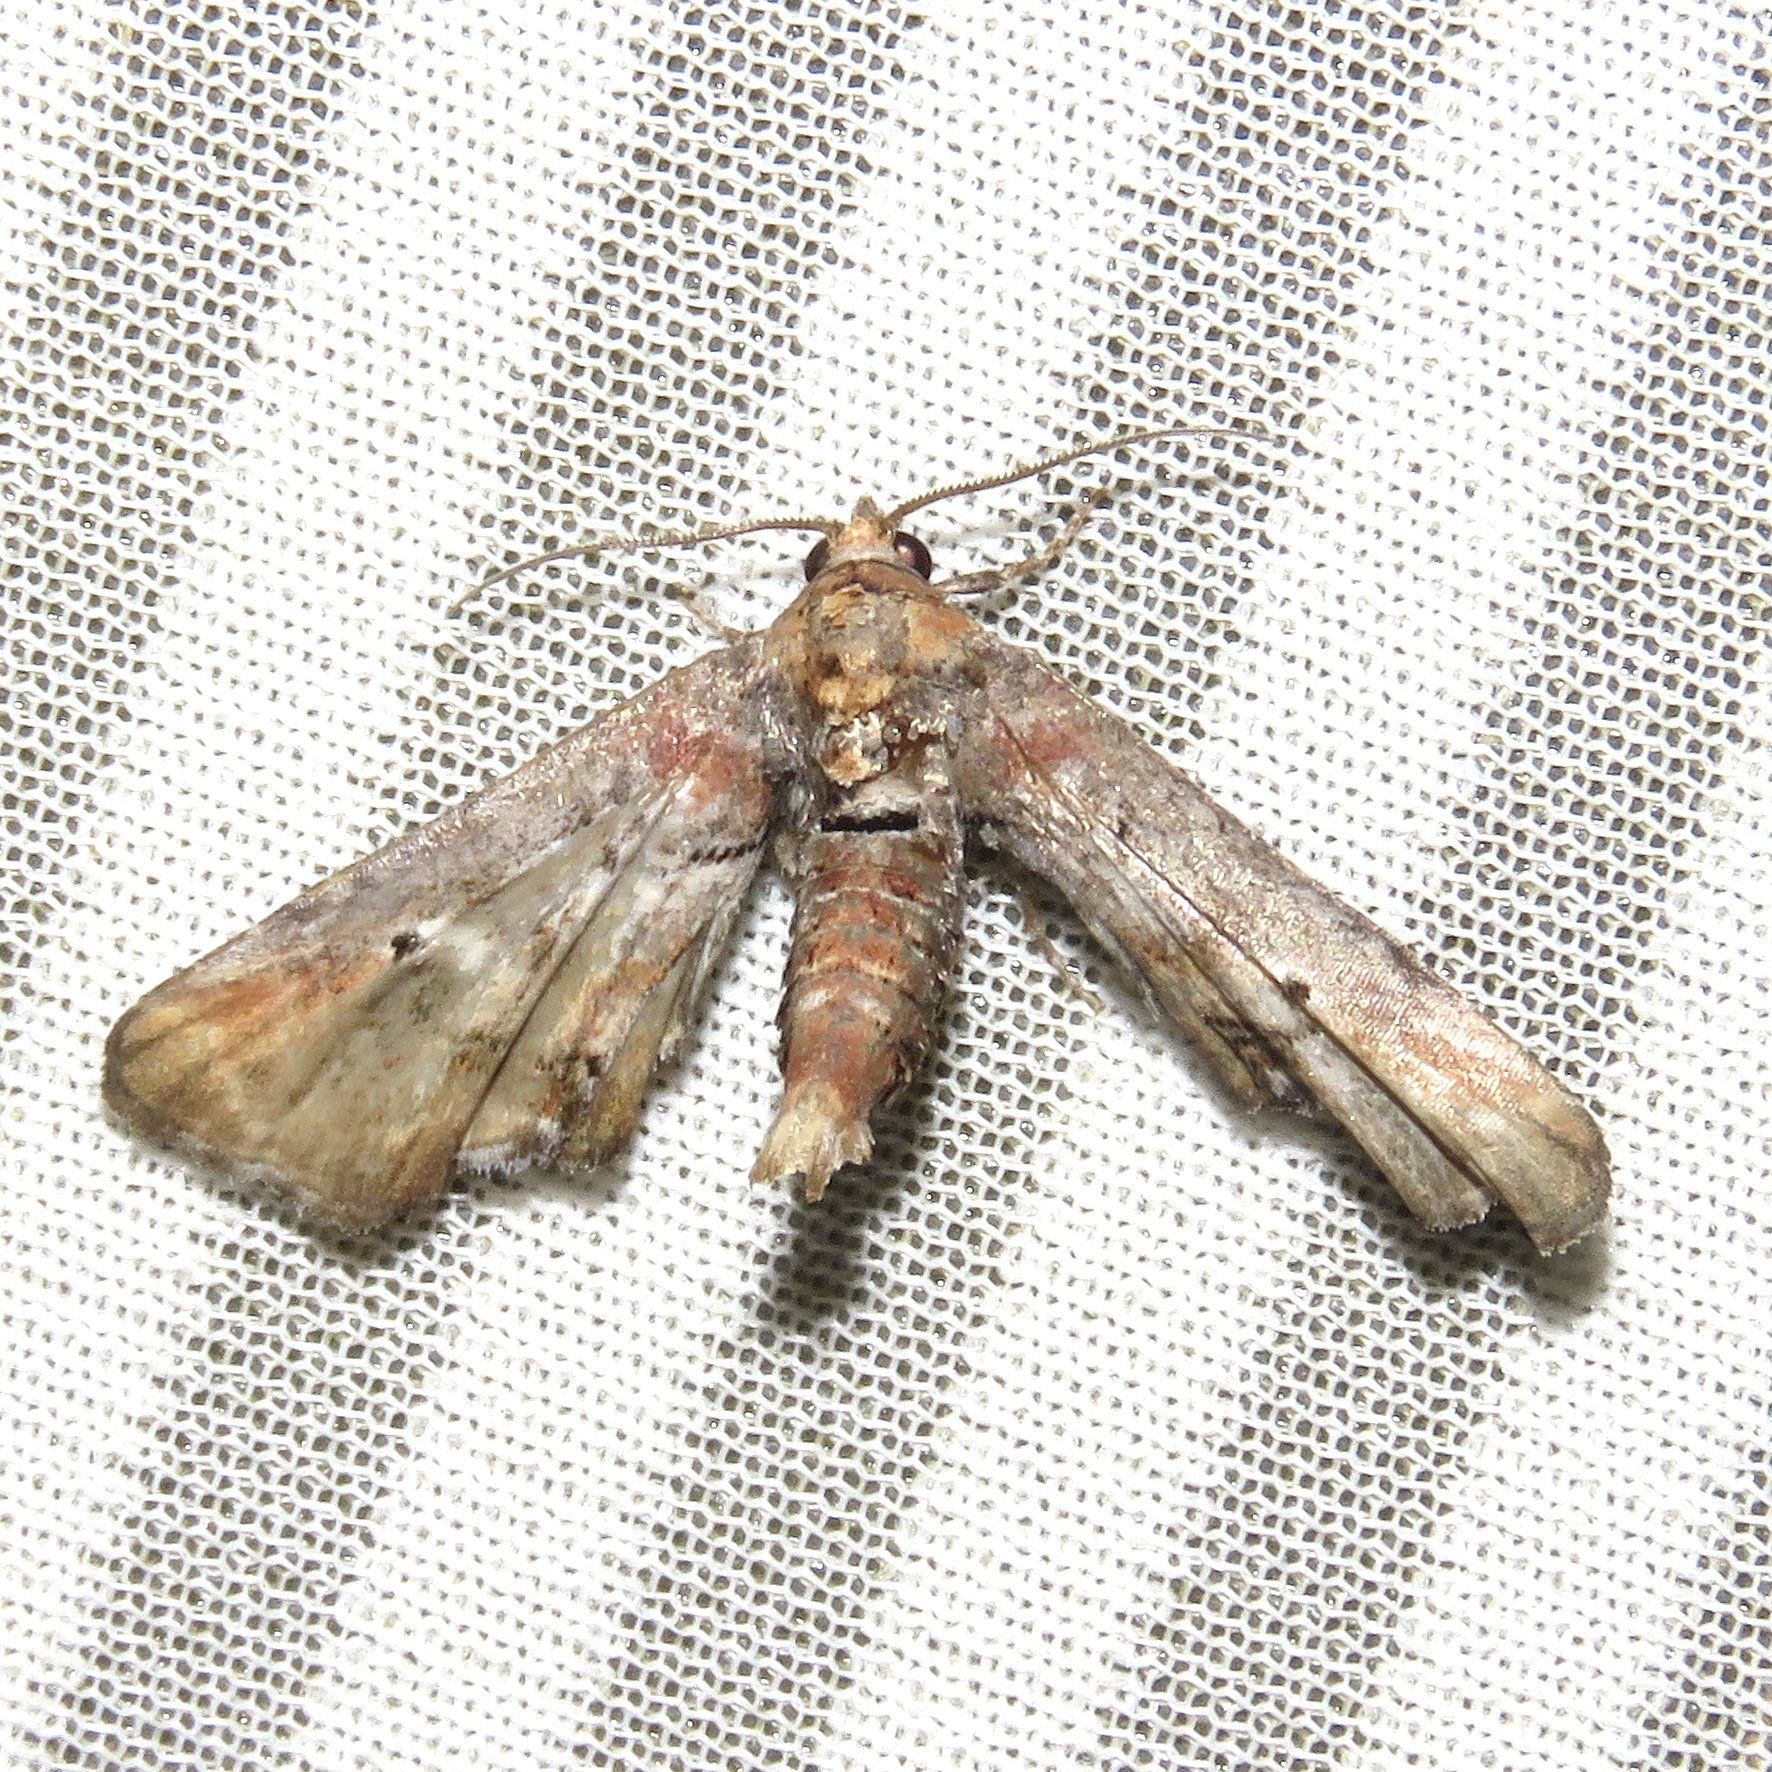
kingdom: Animalia
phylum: Arthropoda
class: Insecta
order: Lepidoptera
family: Euteliidae
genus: Marathyssa
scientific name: Marathyssa inficita
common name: Dark marathyssa moth
